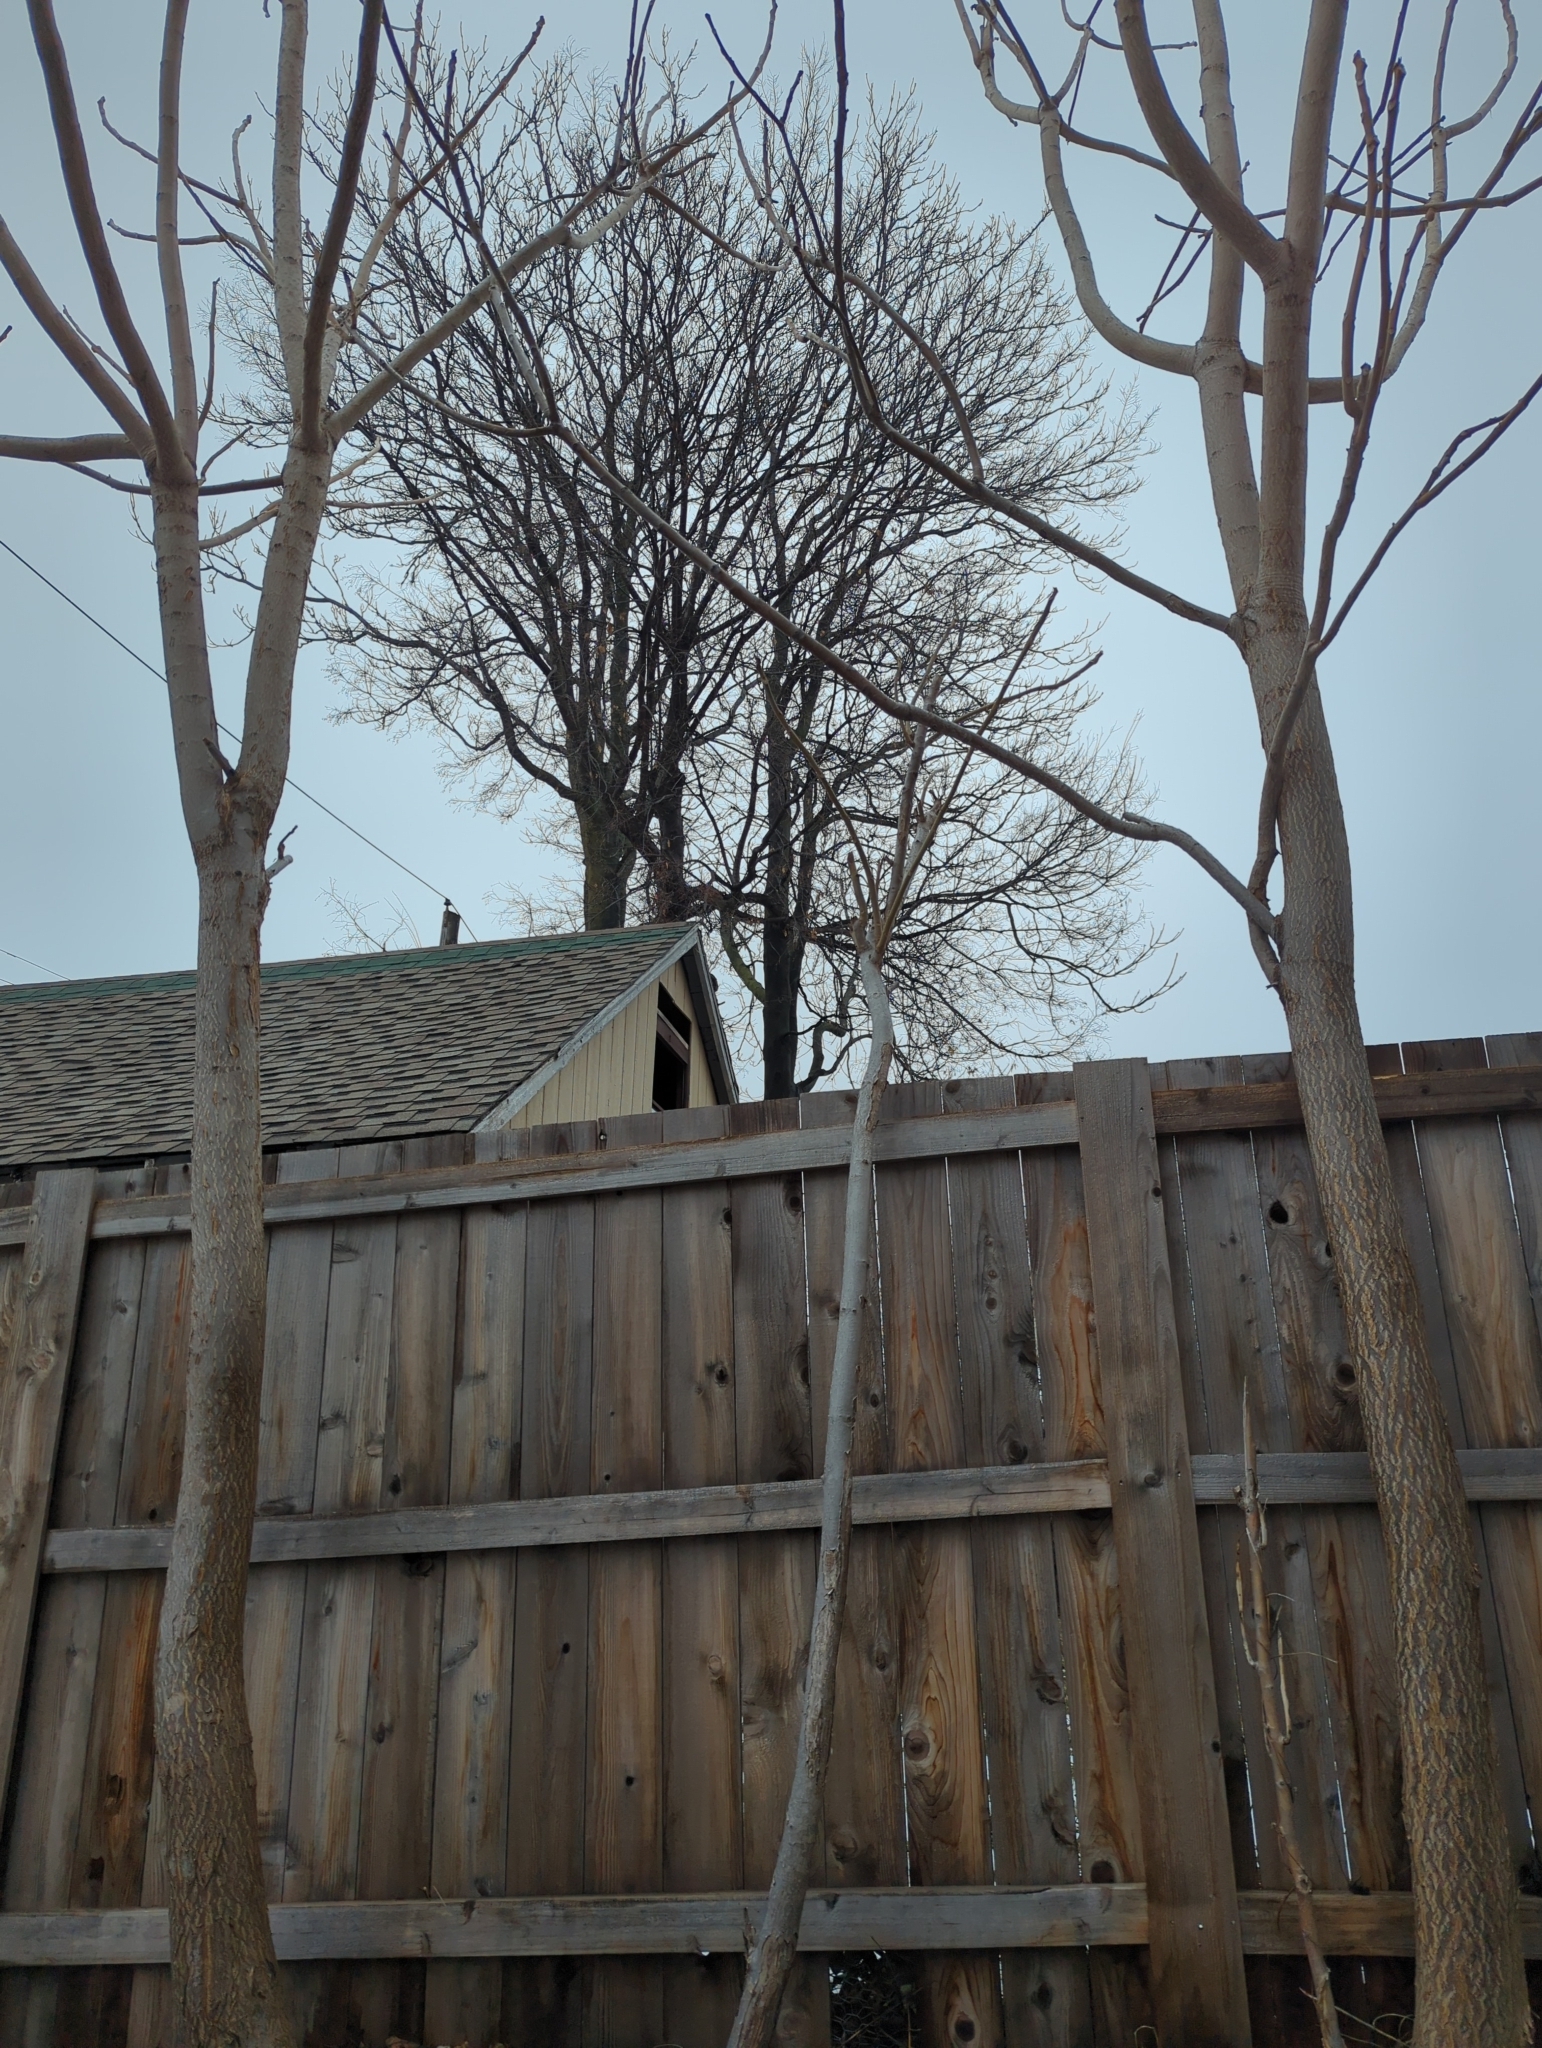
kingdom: Plantae
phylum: Tracheophyta
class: Magnoliopsida
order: Sapindales
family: Simaroubaceae
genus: Ailanthus
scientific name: Ailanthus altissima
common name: Tree-of-heaven
